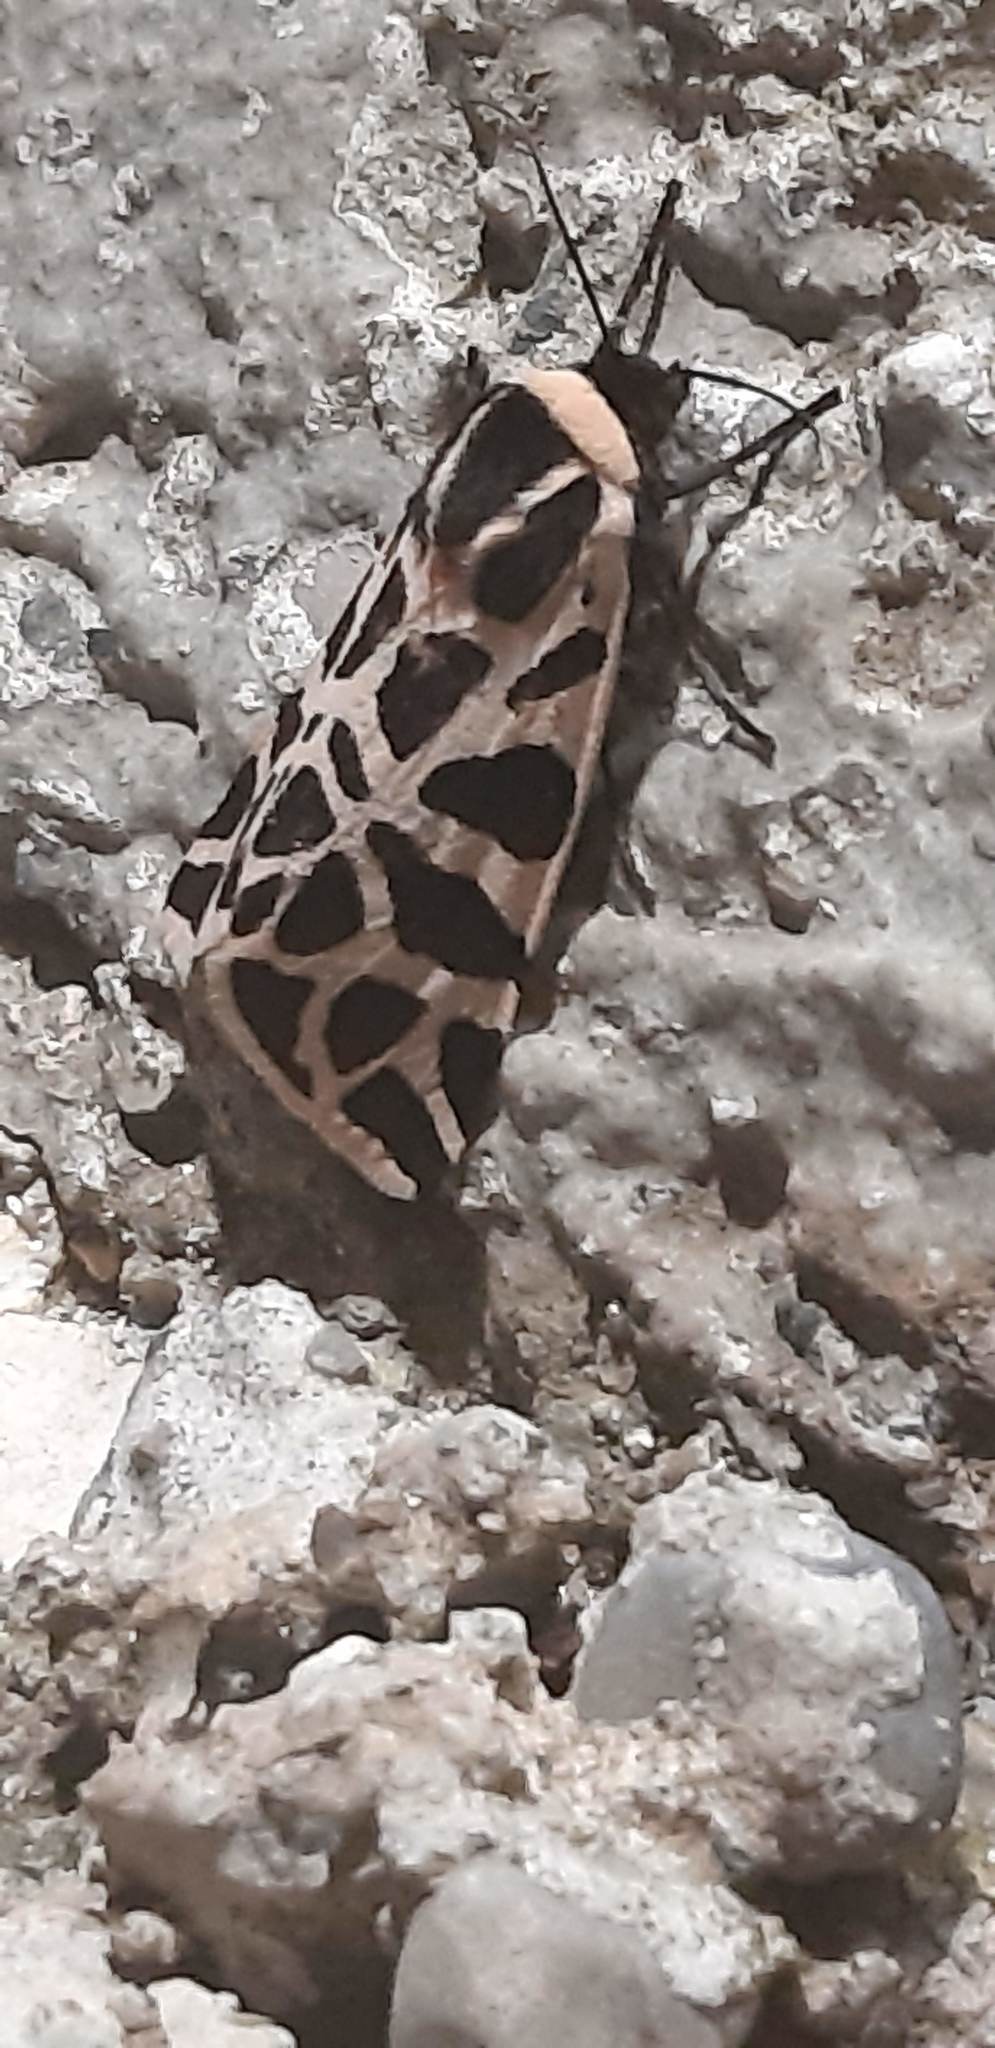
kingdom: Animalia
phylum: Arthropoda
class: Insecta
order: Lepidoptera
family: Erebidae
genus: Cymbalophora
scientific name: Cymbalophora pudica
